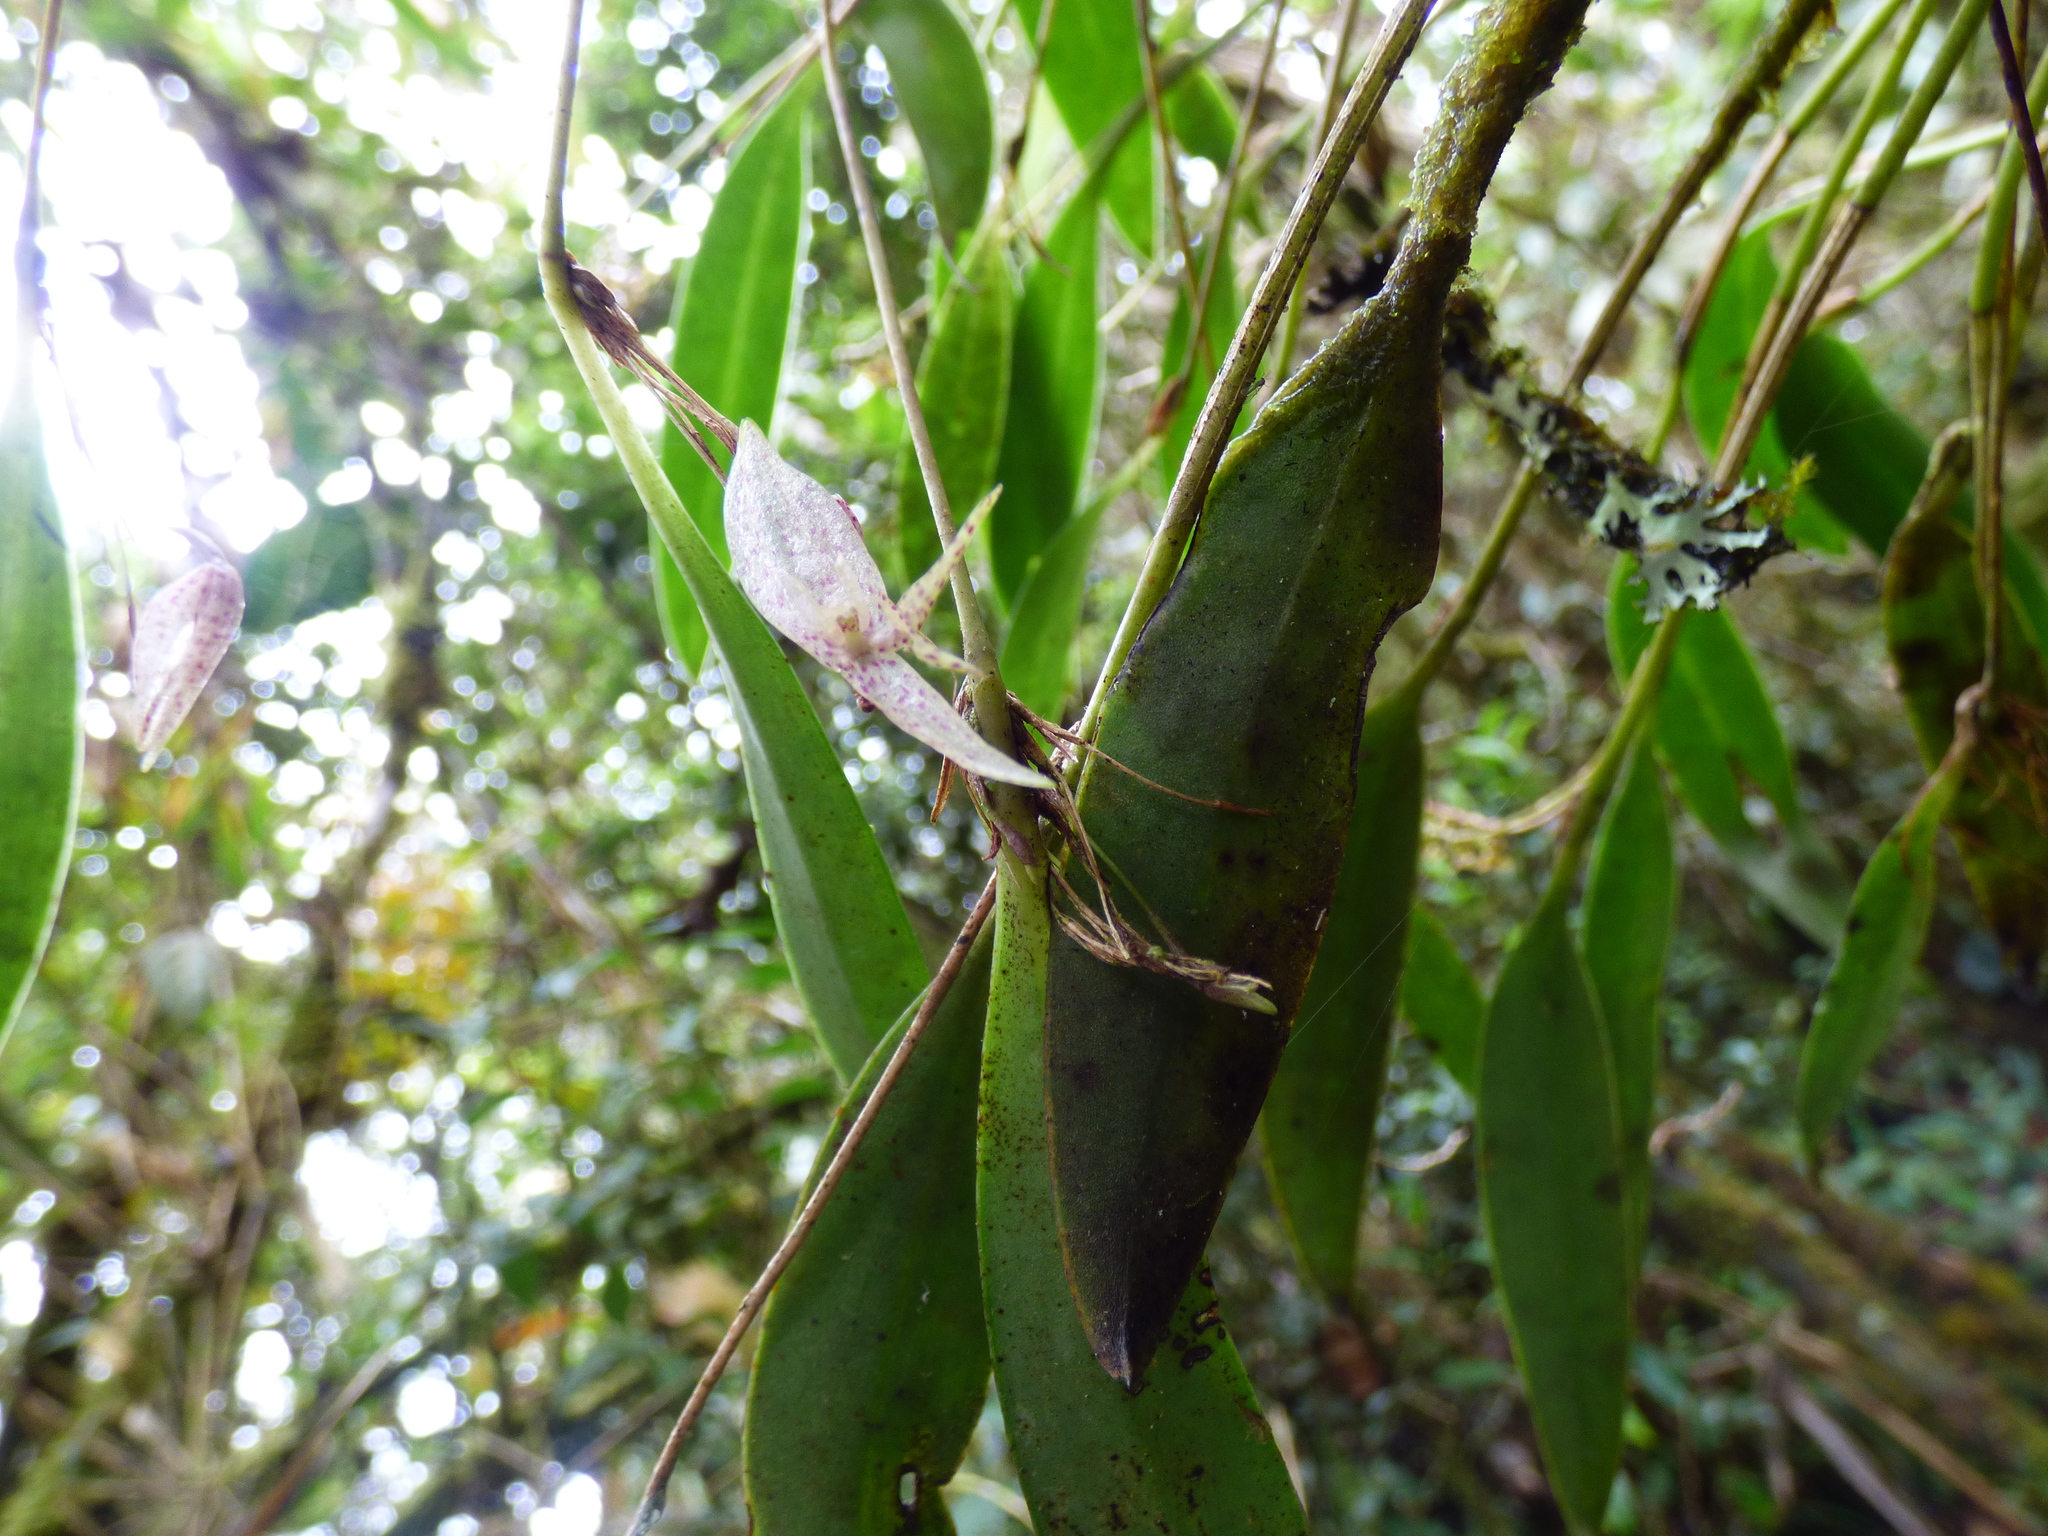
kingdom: Plantae
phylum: Tracheophyta
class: Liliopsida
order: Asparagales
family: Orchidaceae
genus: Pleurothallis
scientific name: Pleurothallis pulvinaris
